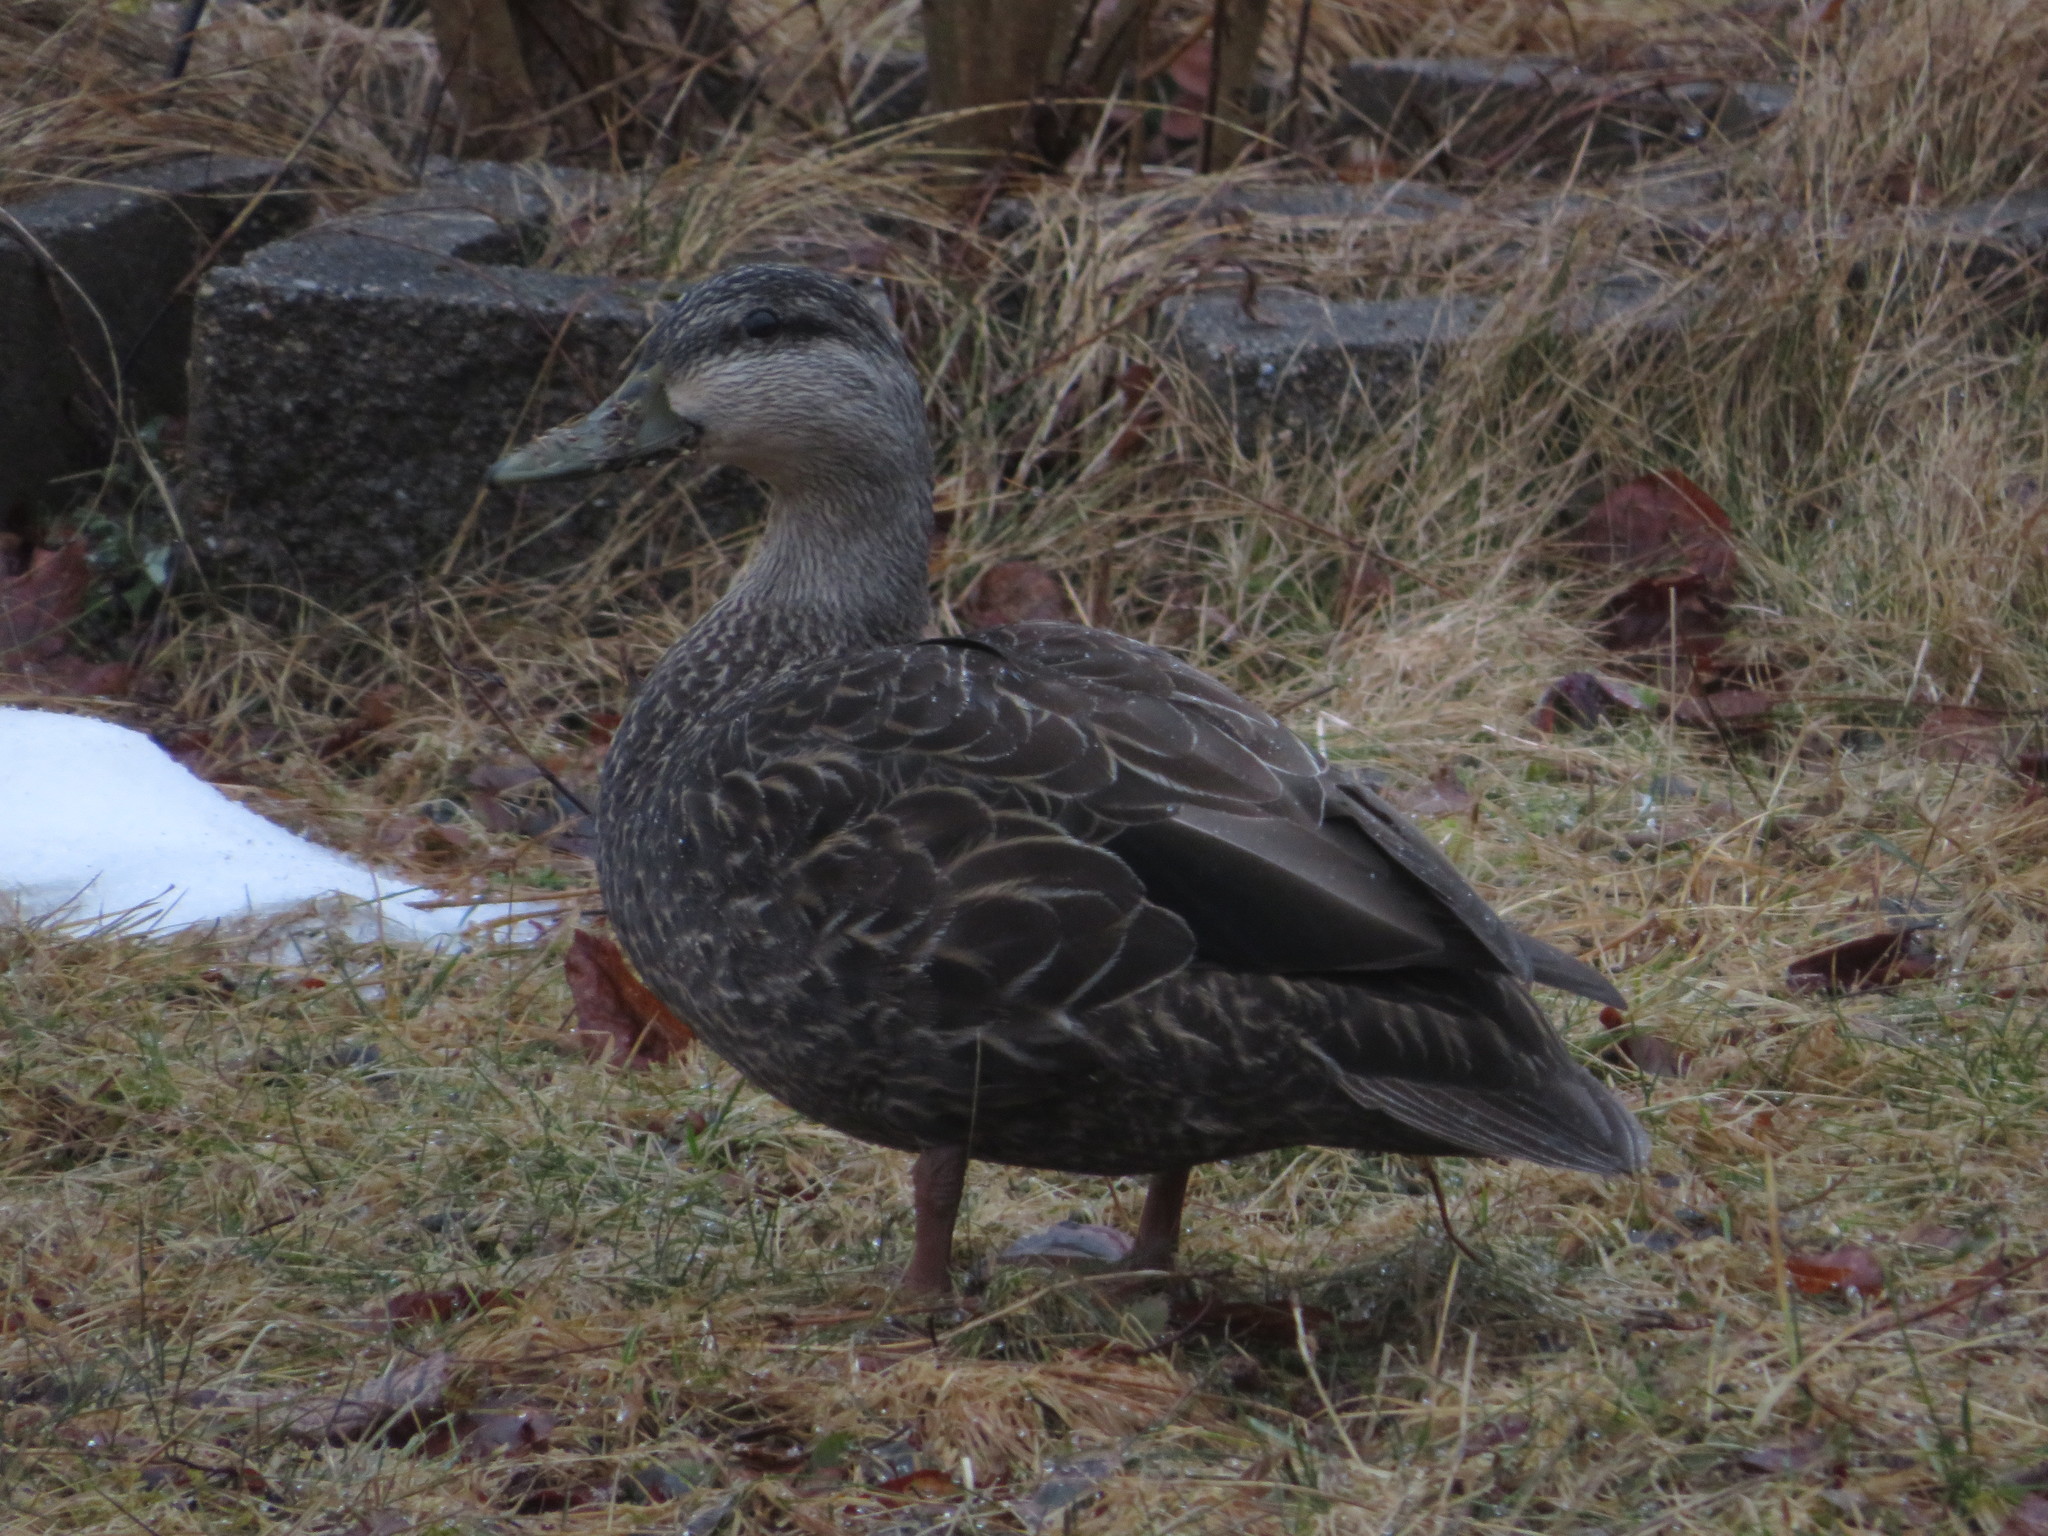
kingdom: Animalia
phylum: Chordata
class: Aves
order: Anseriformes
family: Anatidae
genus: Anas
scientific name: Anas rubripes
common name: American black duck
